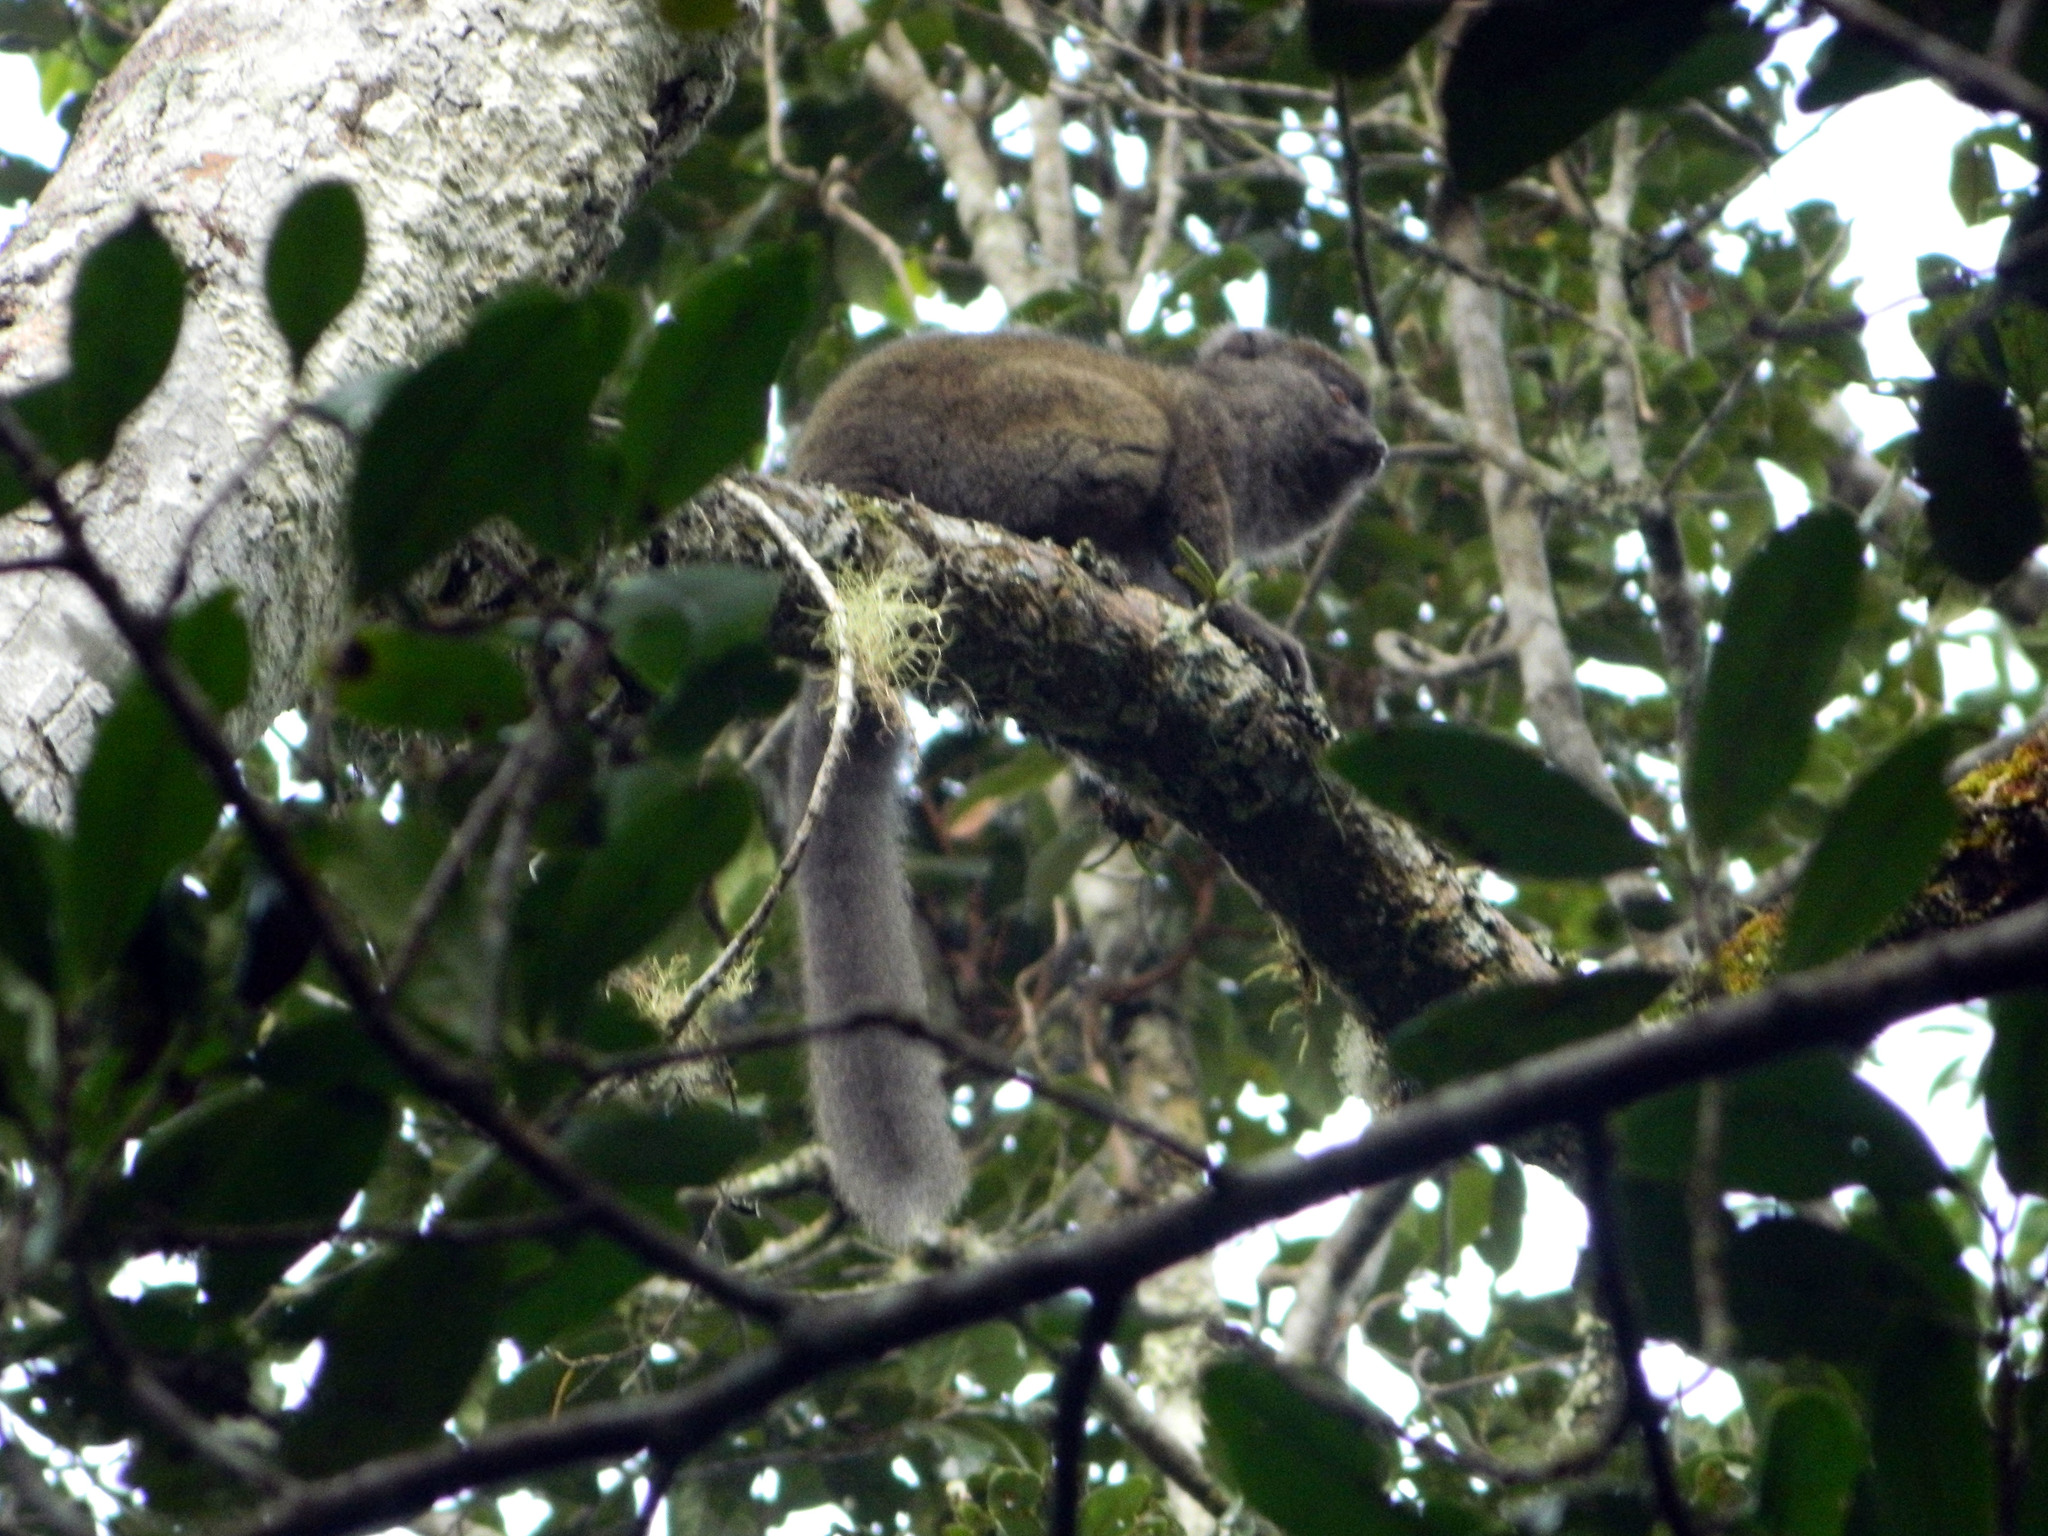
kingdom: Animalia
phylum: Chordata
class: Mammalia
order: Primates
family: Lemuridae
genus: Hapalemur
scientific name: Hapalemur griseus
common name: Gray bamboo lemur
